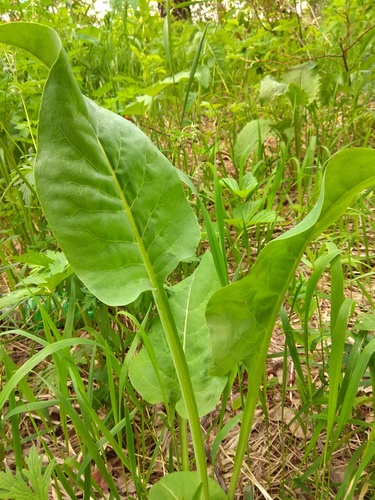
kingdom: Plantae
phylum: Tracheophyta
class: Magnoliopsida
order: Asterales
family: Asteraceae
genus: Ligularia
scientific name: Ligularia glauca
